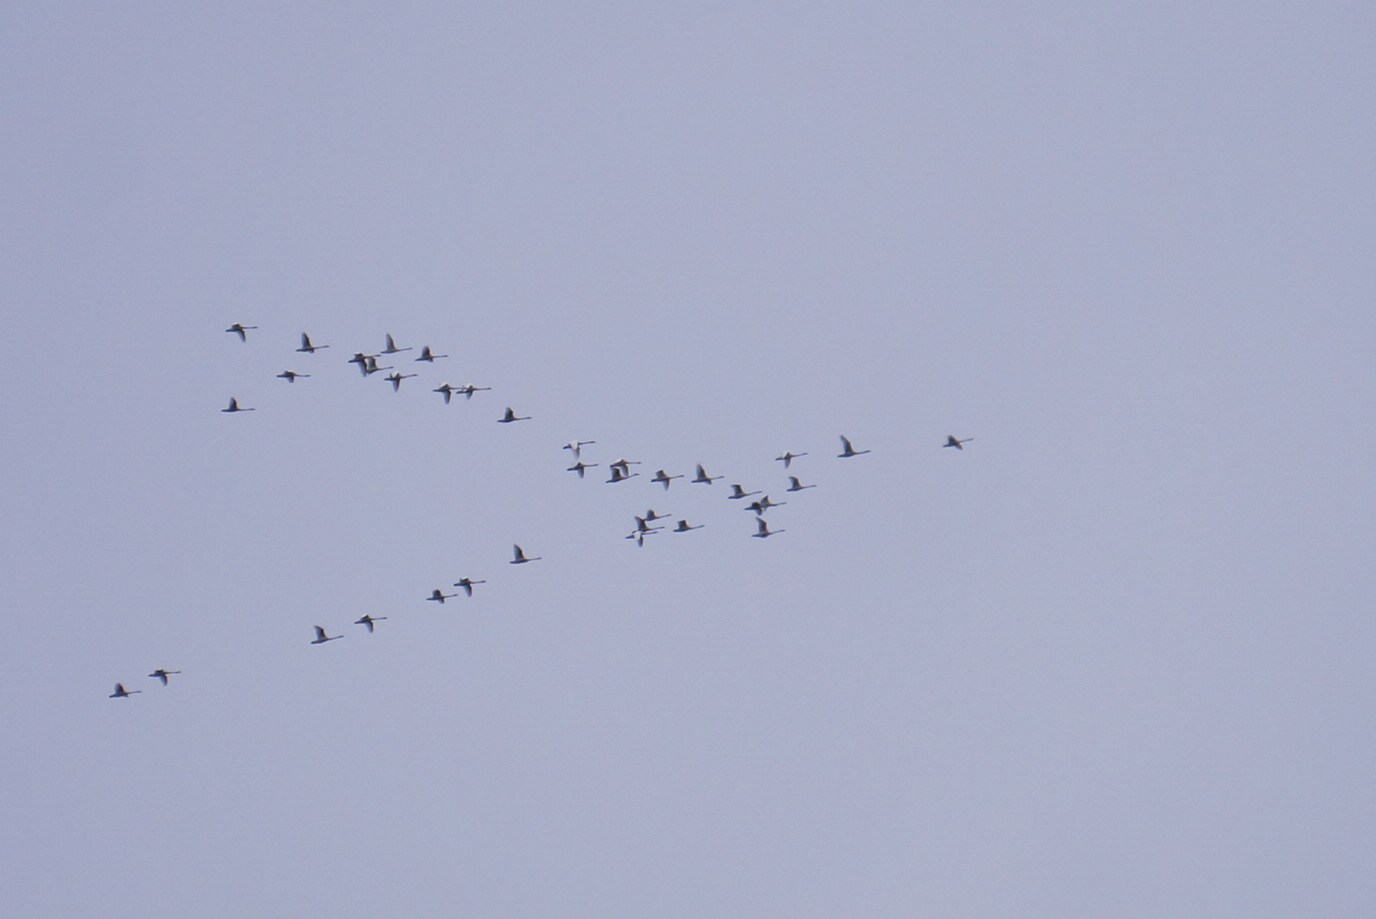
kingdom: Animalia
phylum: Chordata
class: Aves
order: Anseriformes
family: Anatidae
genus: Cygnus
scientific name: Cygnus columbianus
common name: Tundra swan
